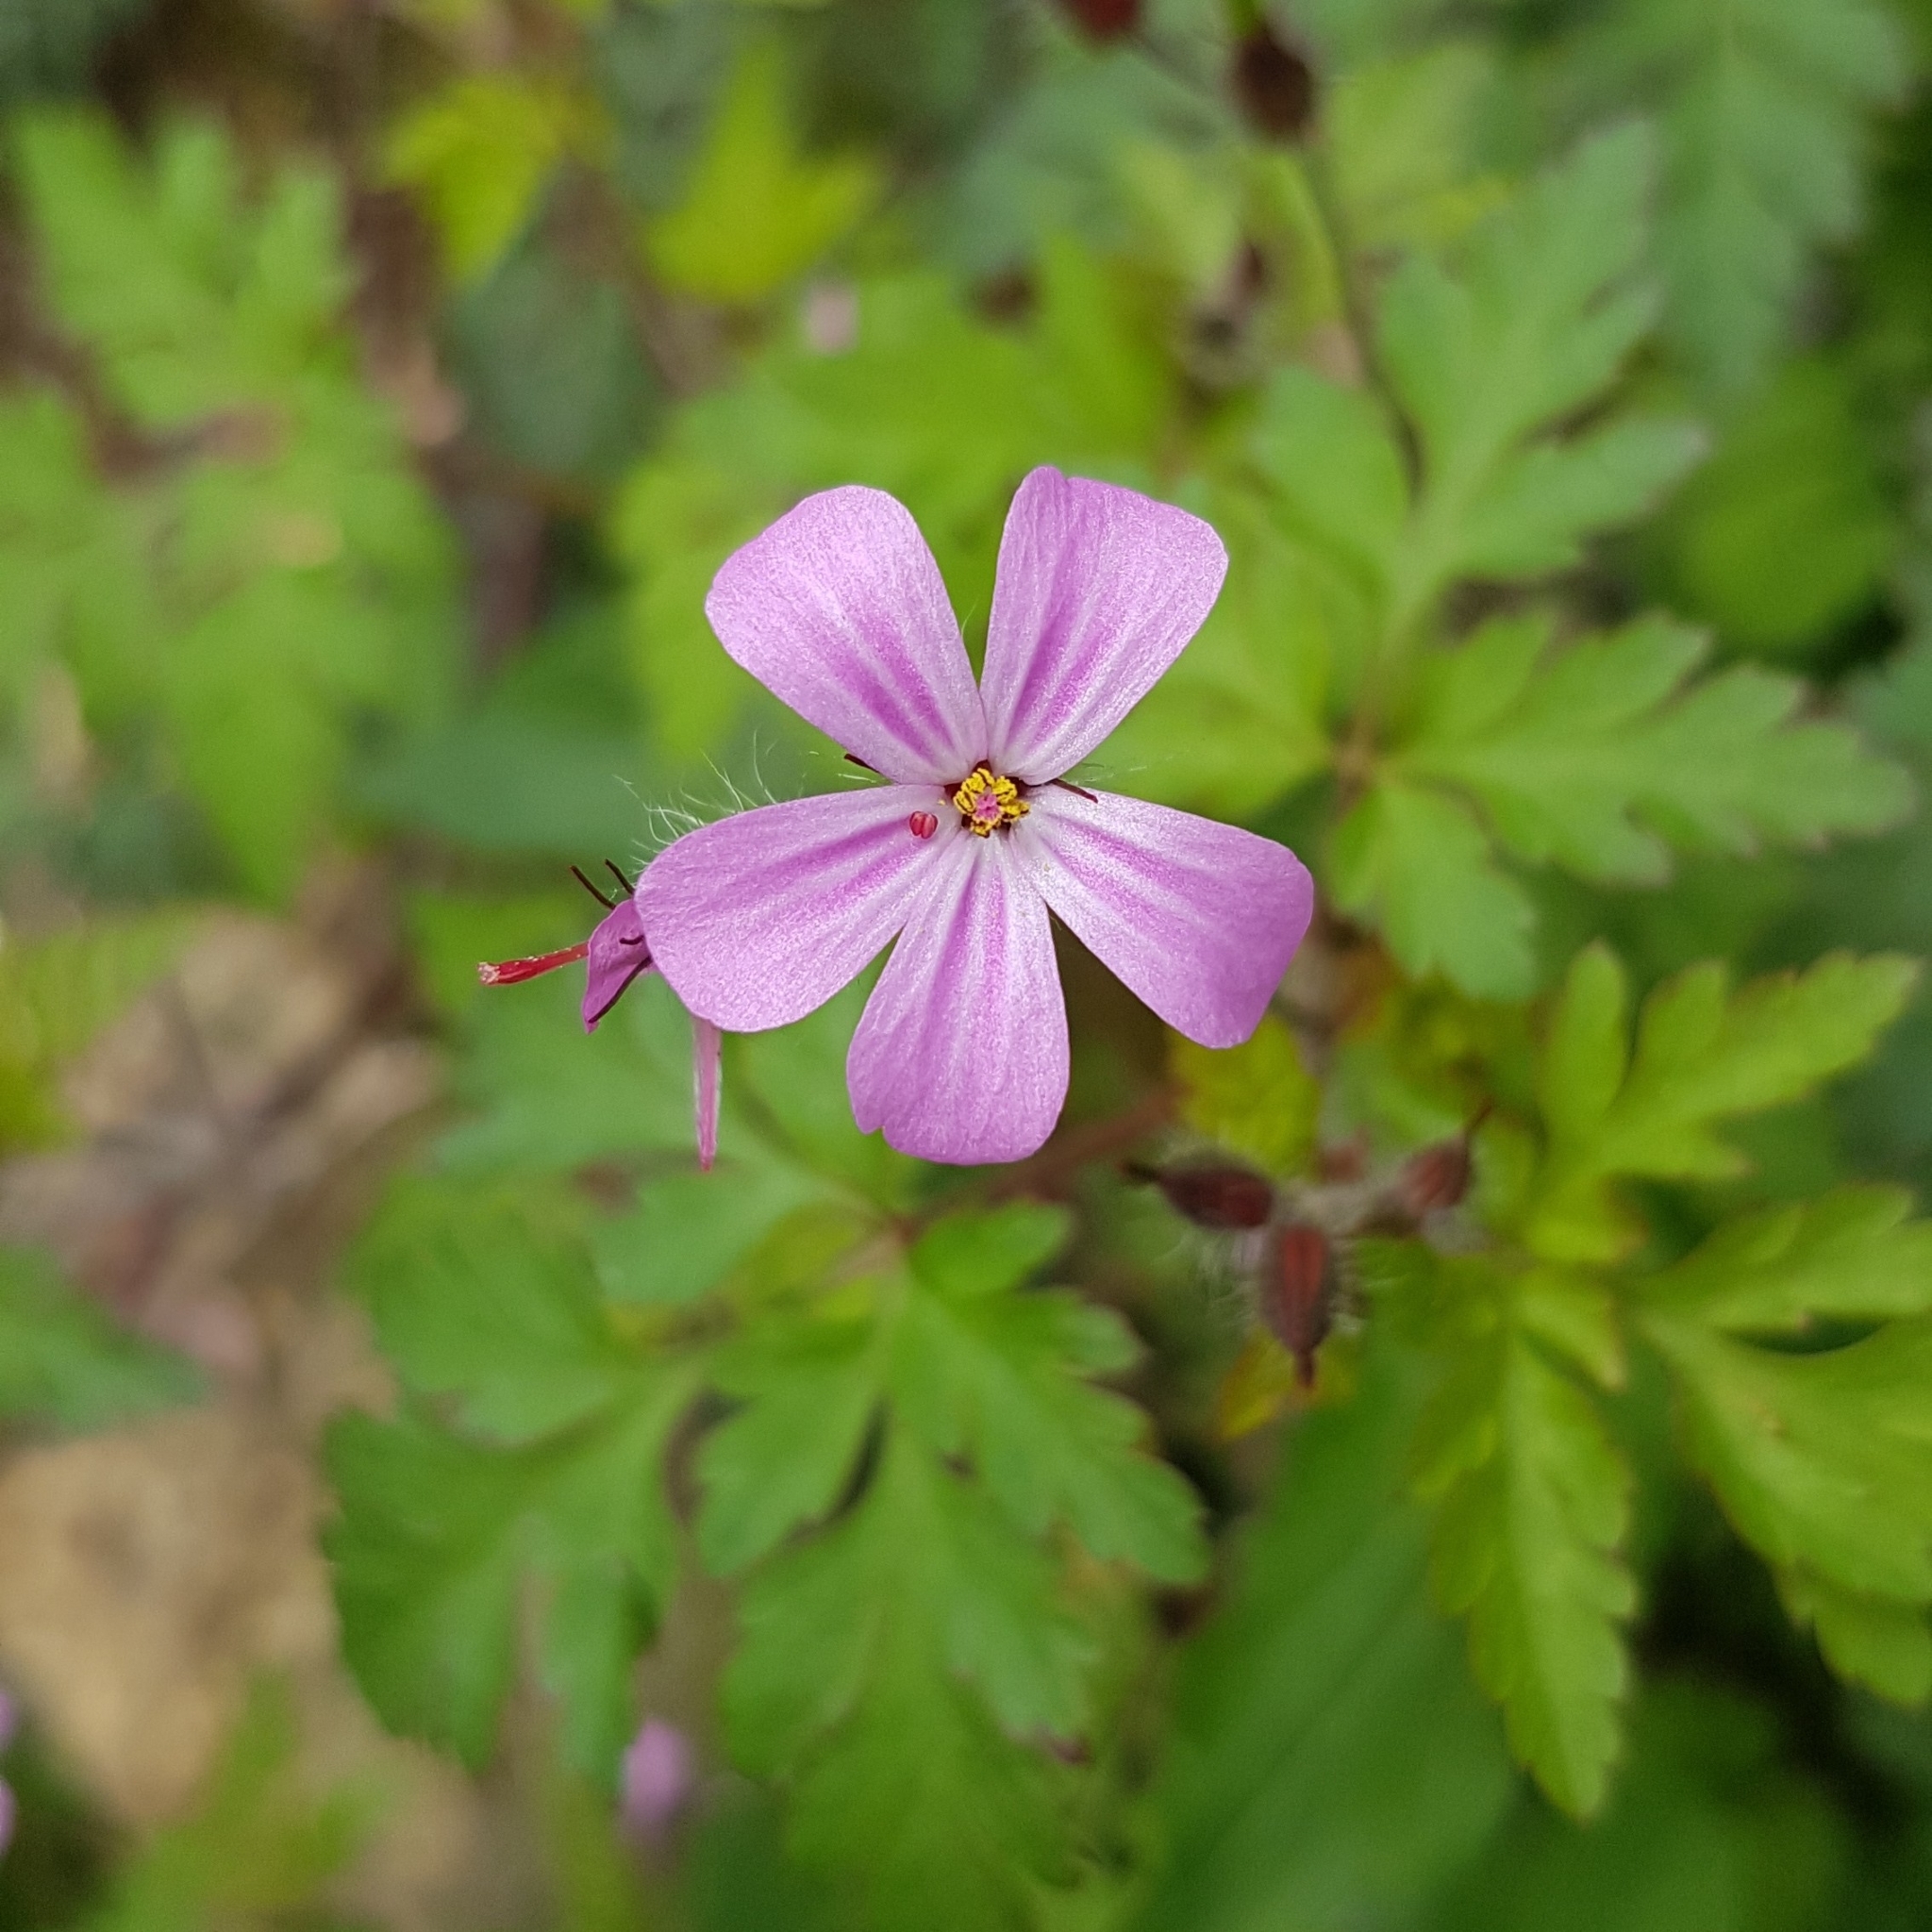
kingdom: Plantae
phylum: Tracheophyta
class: Magnoliopsida
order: Geraniales
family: Geraniaceae
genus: Geranium
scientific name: Geranium robertianum
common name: Herb-robert
